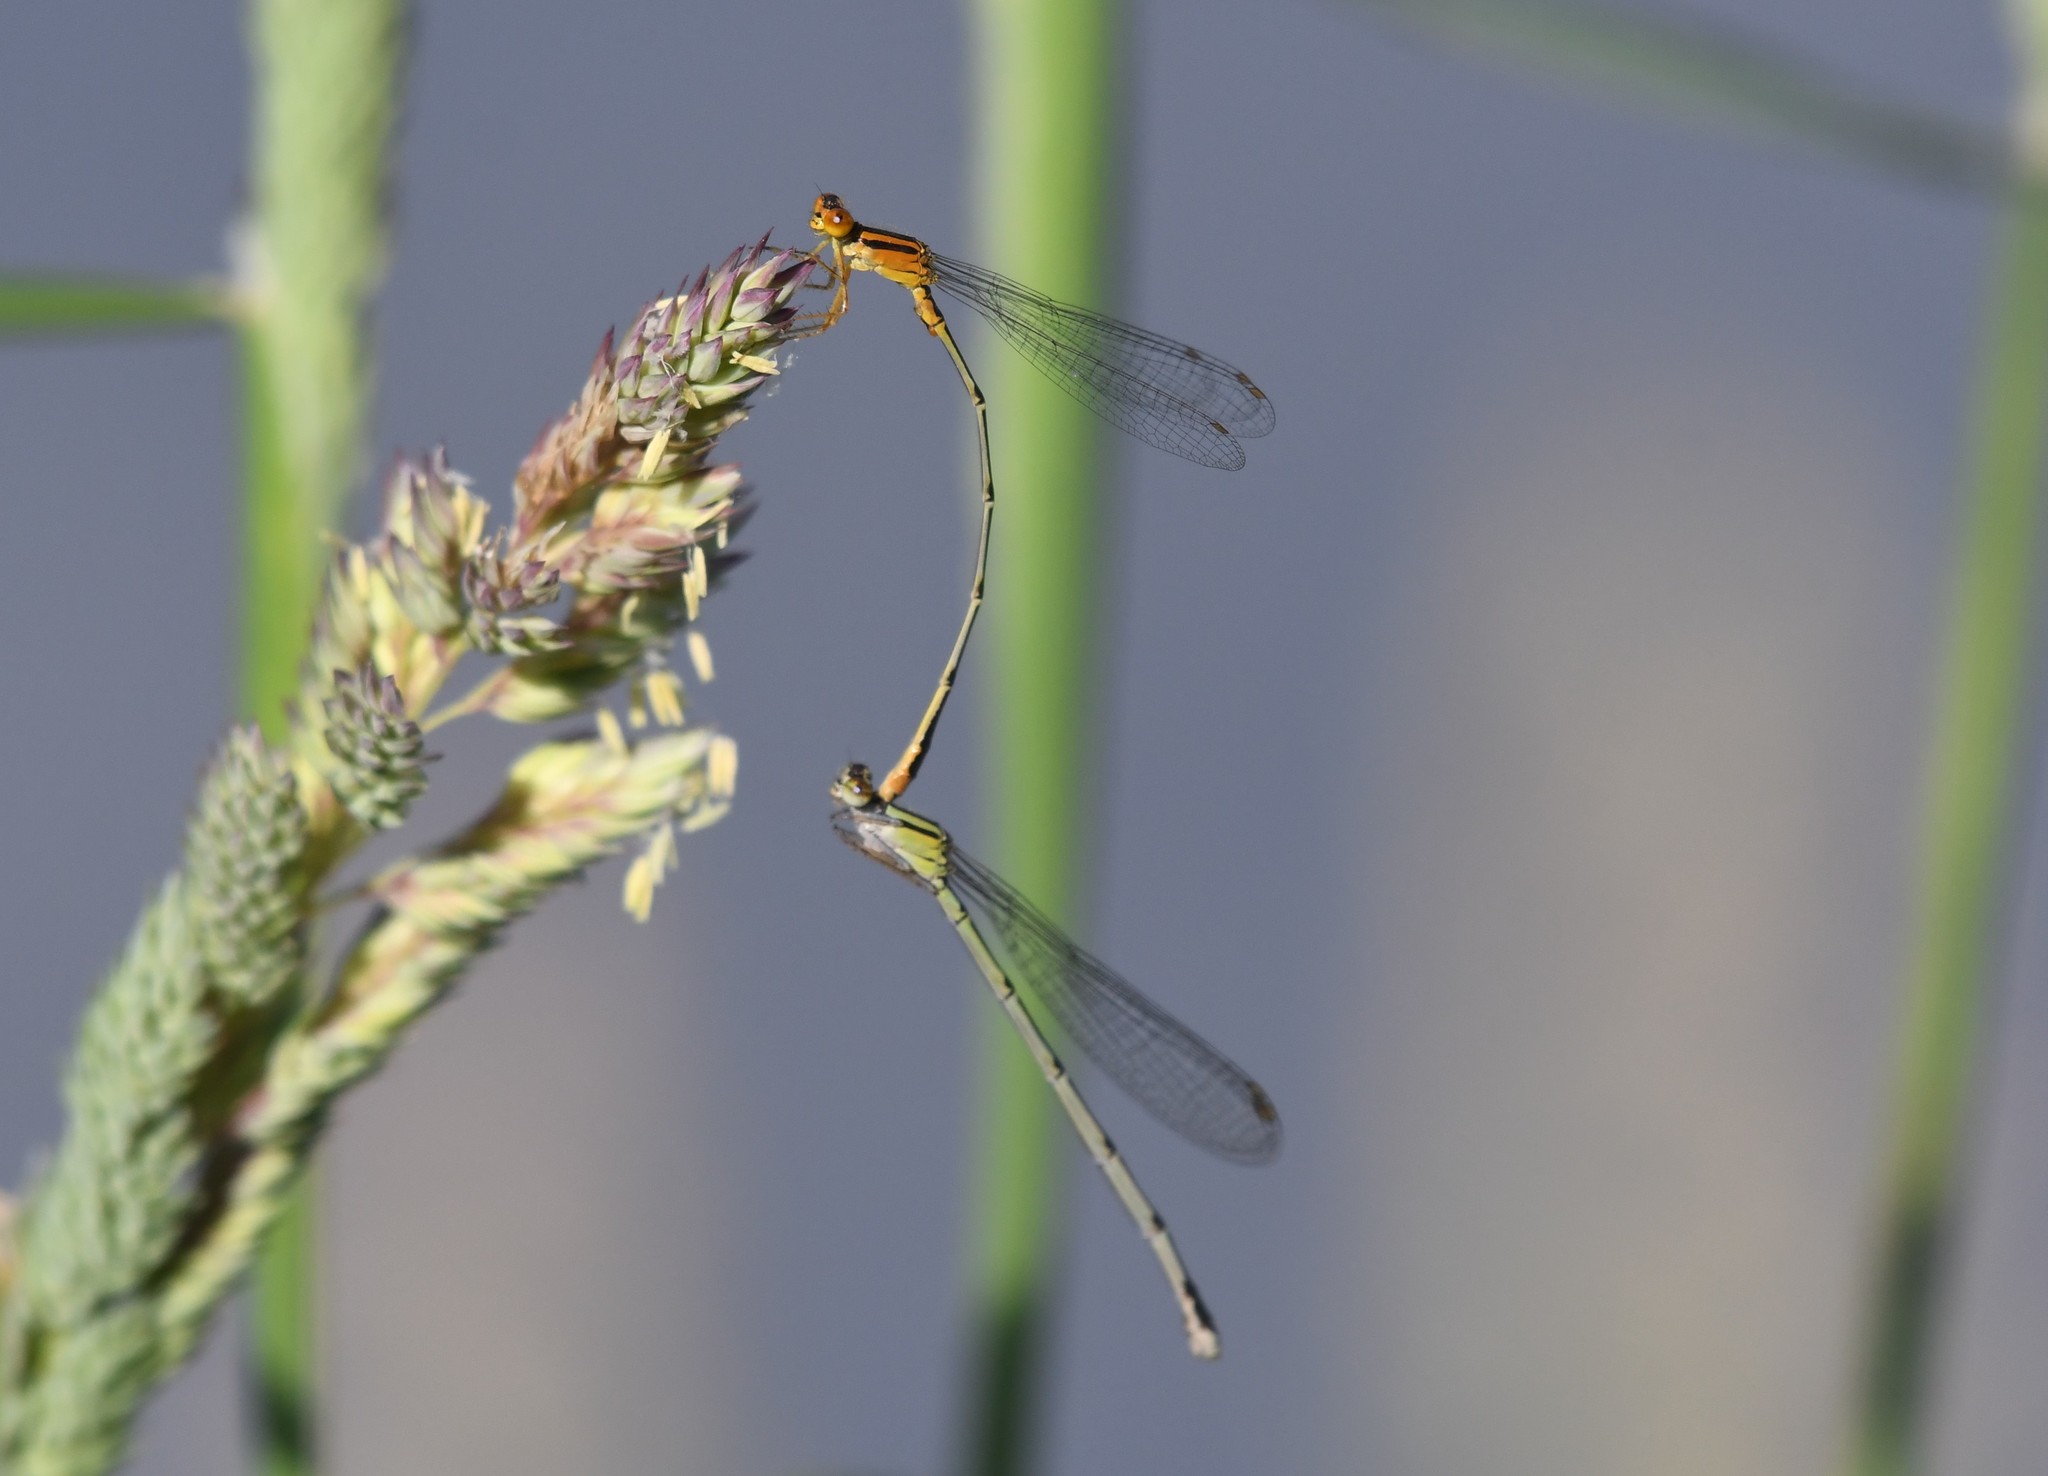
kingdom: Animalia
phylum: Arthropoda
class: Insecta
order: Odonata
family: Coenagrionidae
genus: Enallagma
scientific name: Enallagma signatum
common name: Orange bluet
